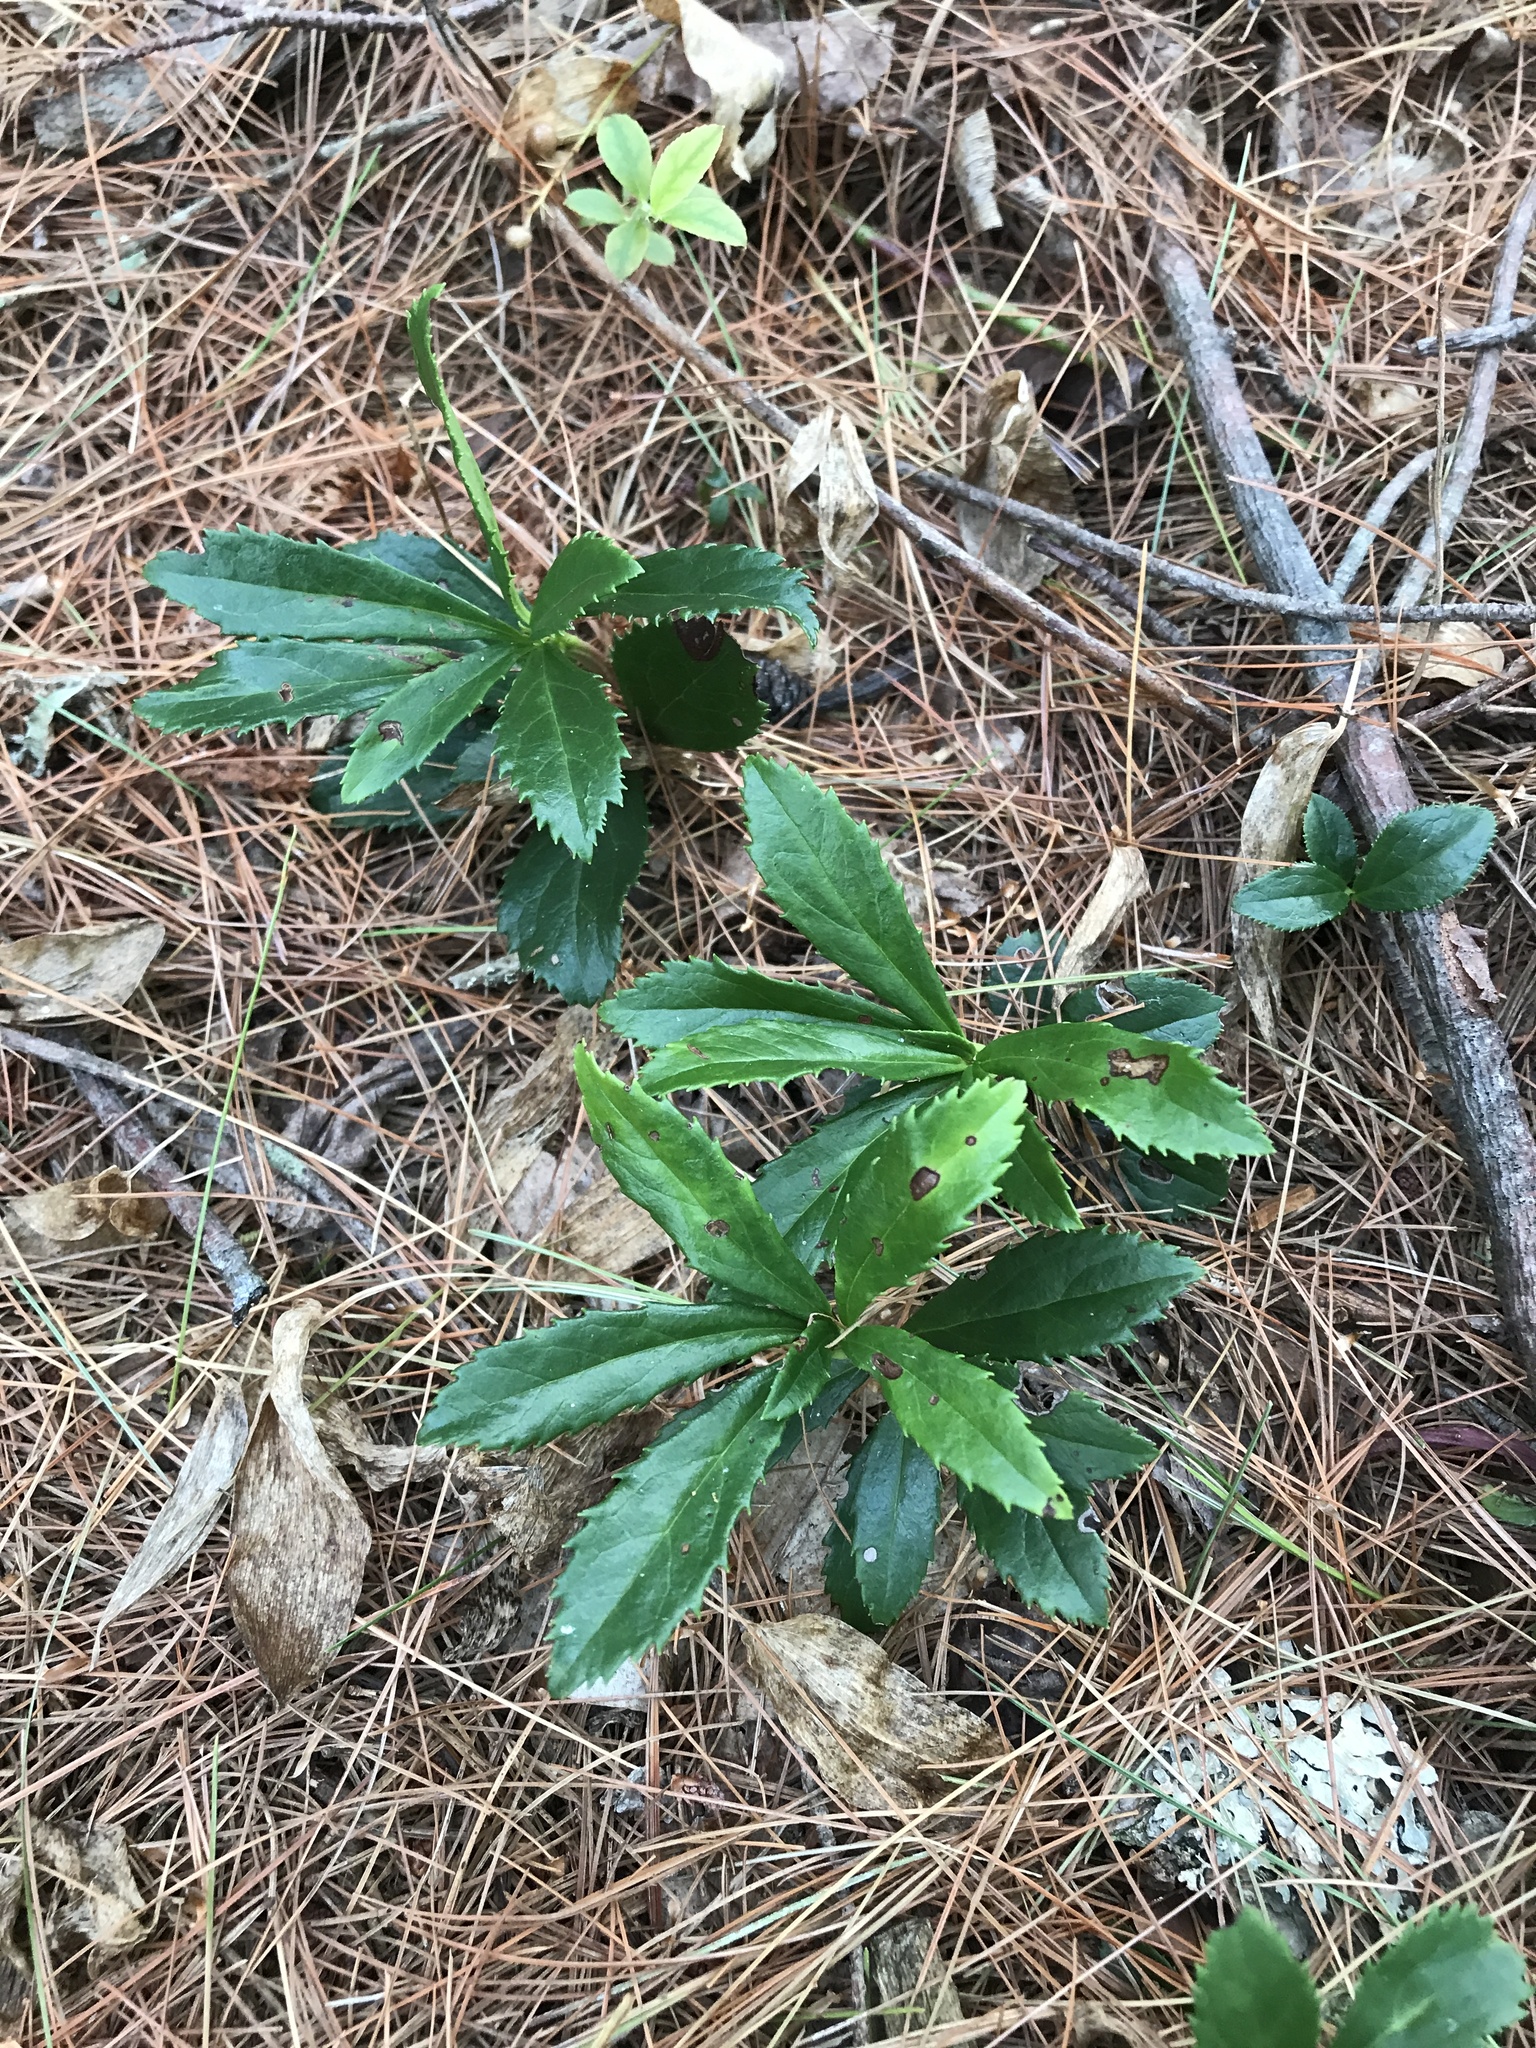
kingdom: Plantae
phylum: Tracheophyta
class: Magnoliopsida
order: Ericales
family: Ericaceae
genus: Chimaphila
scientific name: Chimaphila umbellata
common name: Pipsissewa
